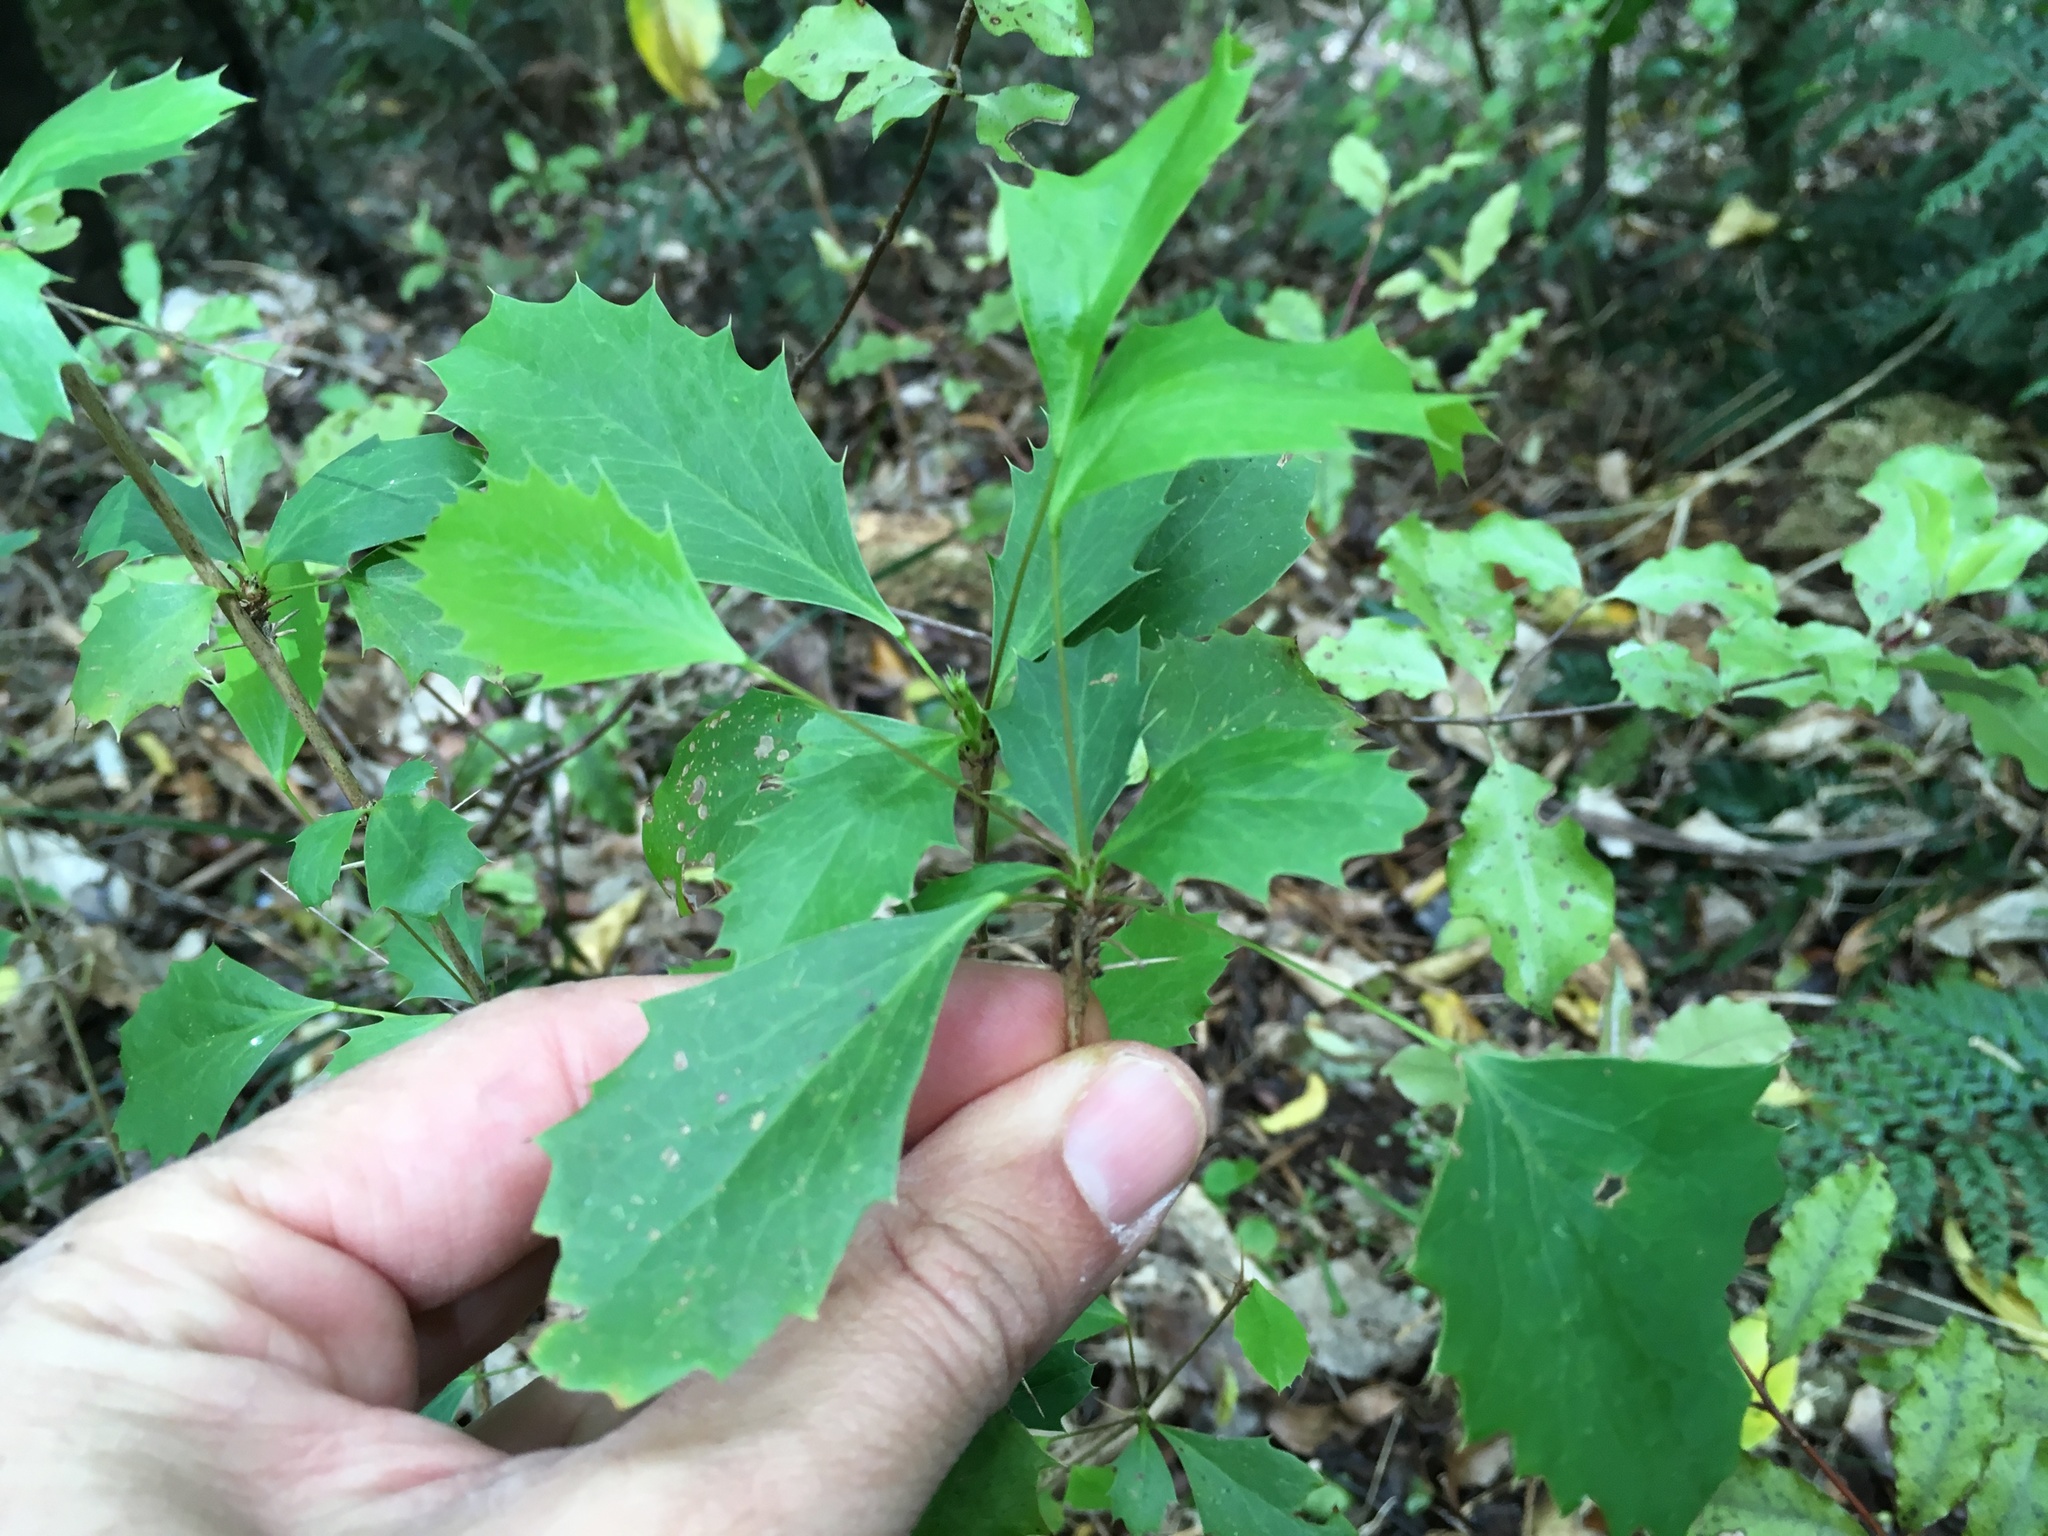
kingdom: Plantae
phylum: Tracheophyta
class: Magnoliopsida
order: Ranunculales
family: Berberidaceae
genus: Berberis
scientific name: Berberis glaucocarpa
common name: Great barberry
